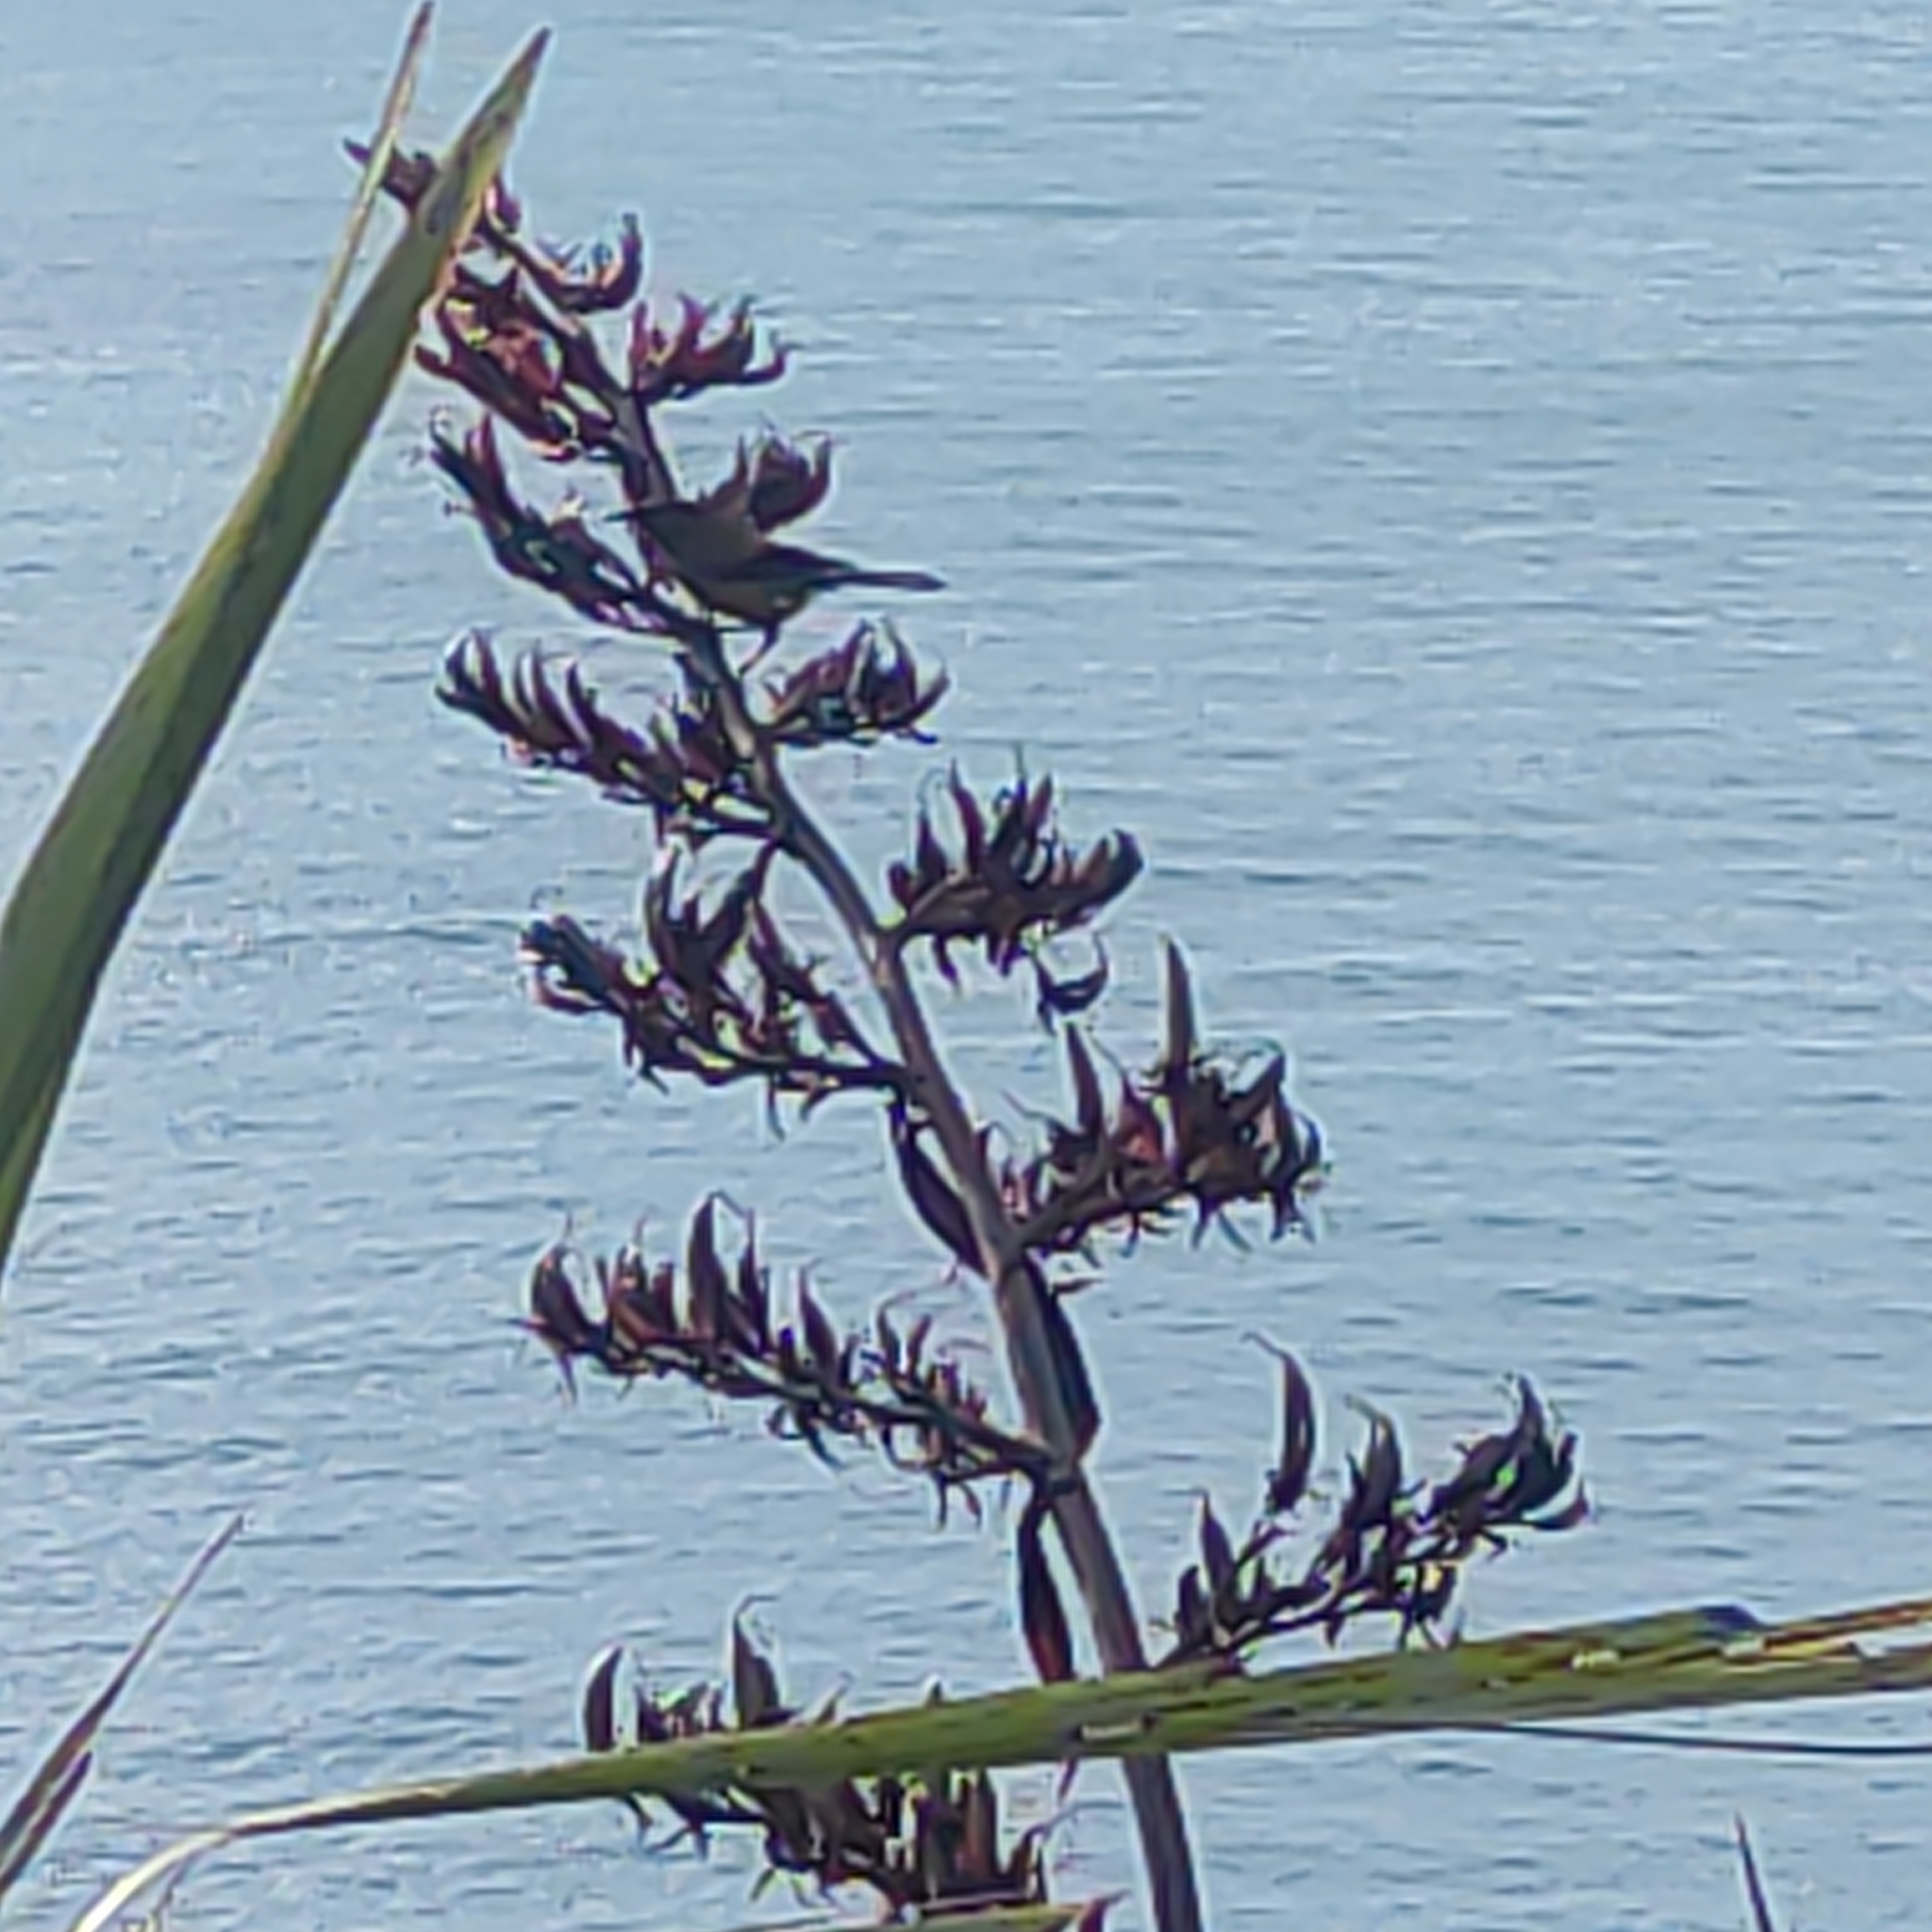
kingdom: Animalia
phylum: Chordata
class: Aves
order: Passeriformes
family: Meliphagidae
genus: Anthornis
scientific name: Anthornis melanura
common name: New zealand bellbird
